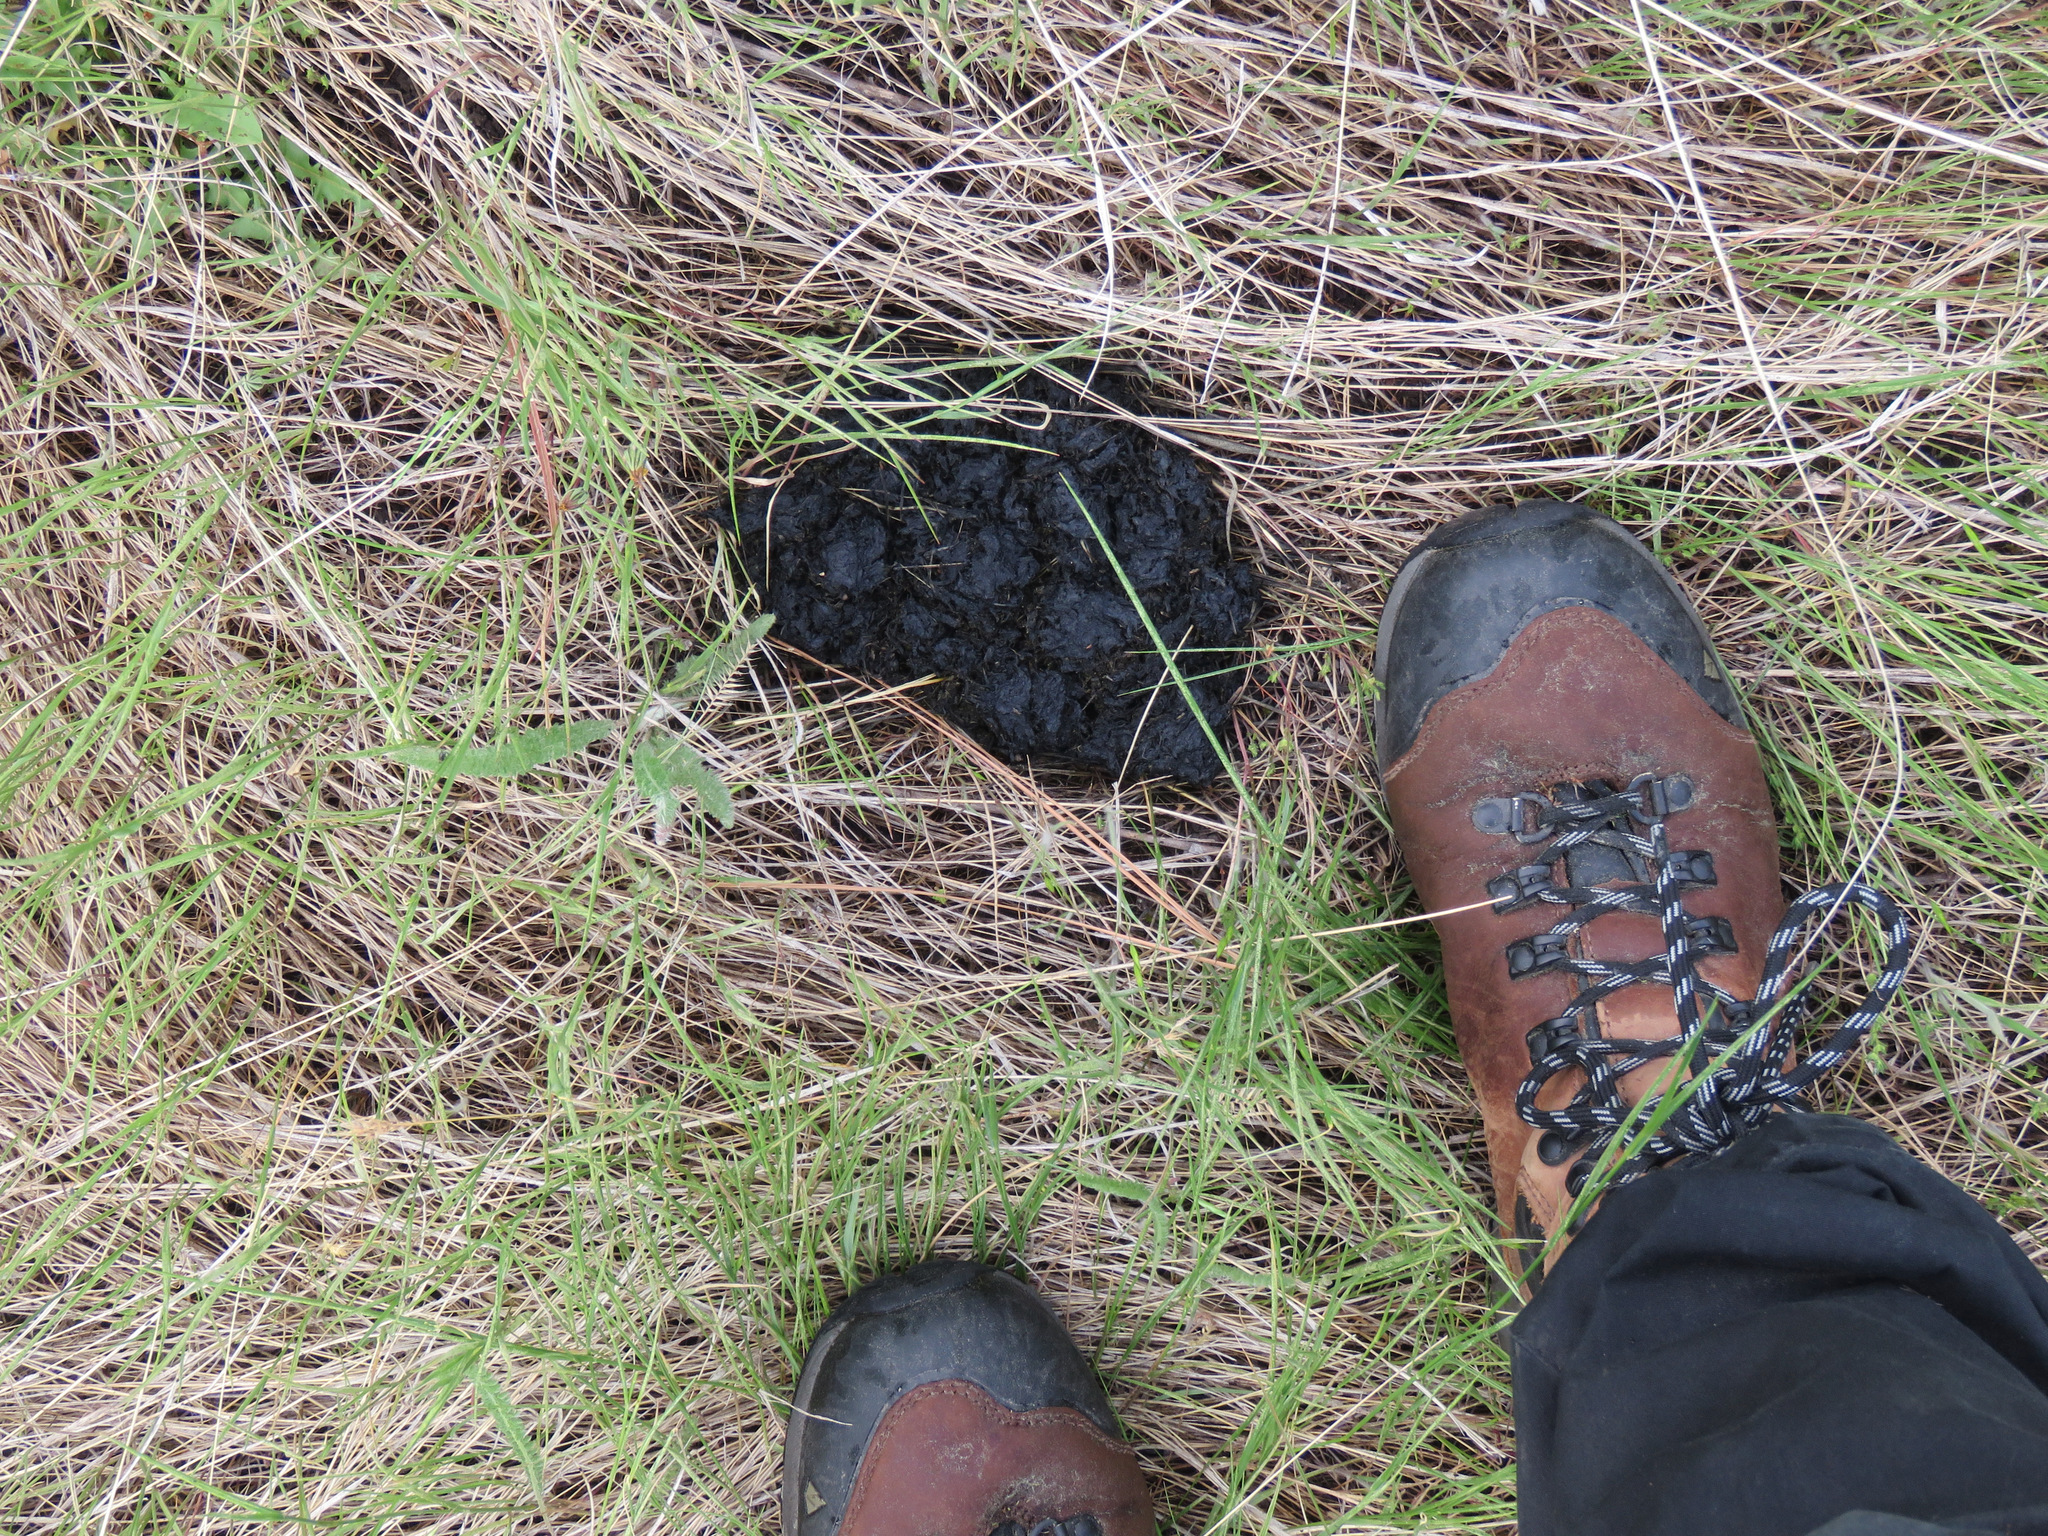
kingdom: Animalia
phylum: Chordata
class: Mammalia
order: Carnivora
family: Ursidae
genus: Ursus
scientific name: Ursus americanus
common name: American black bear
